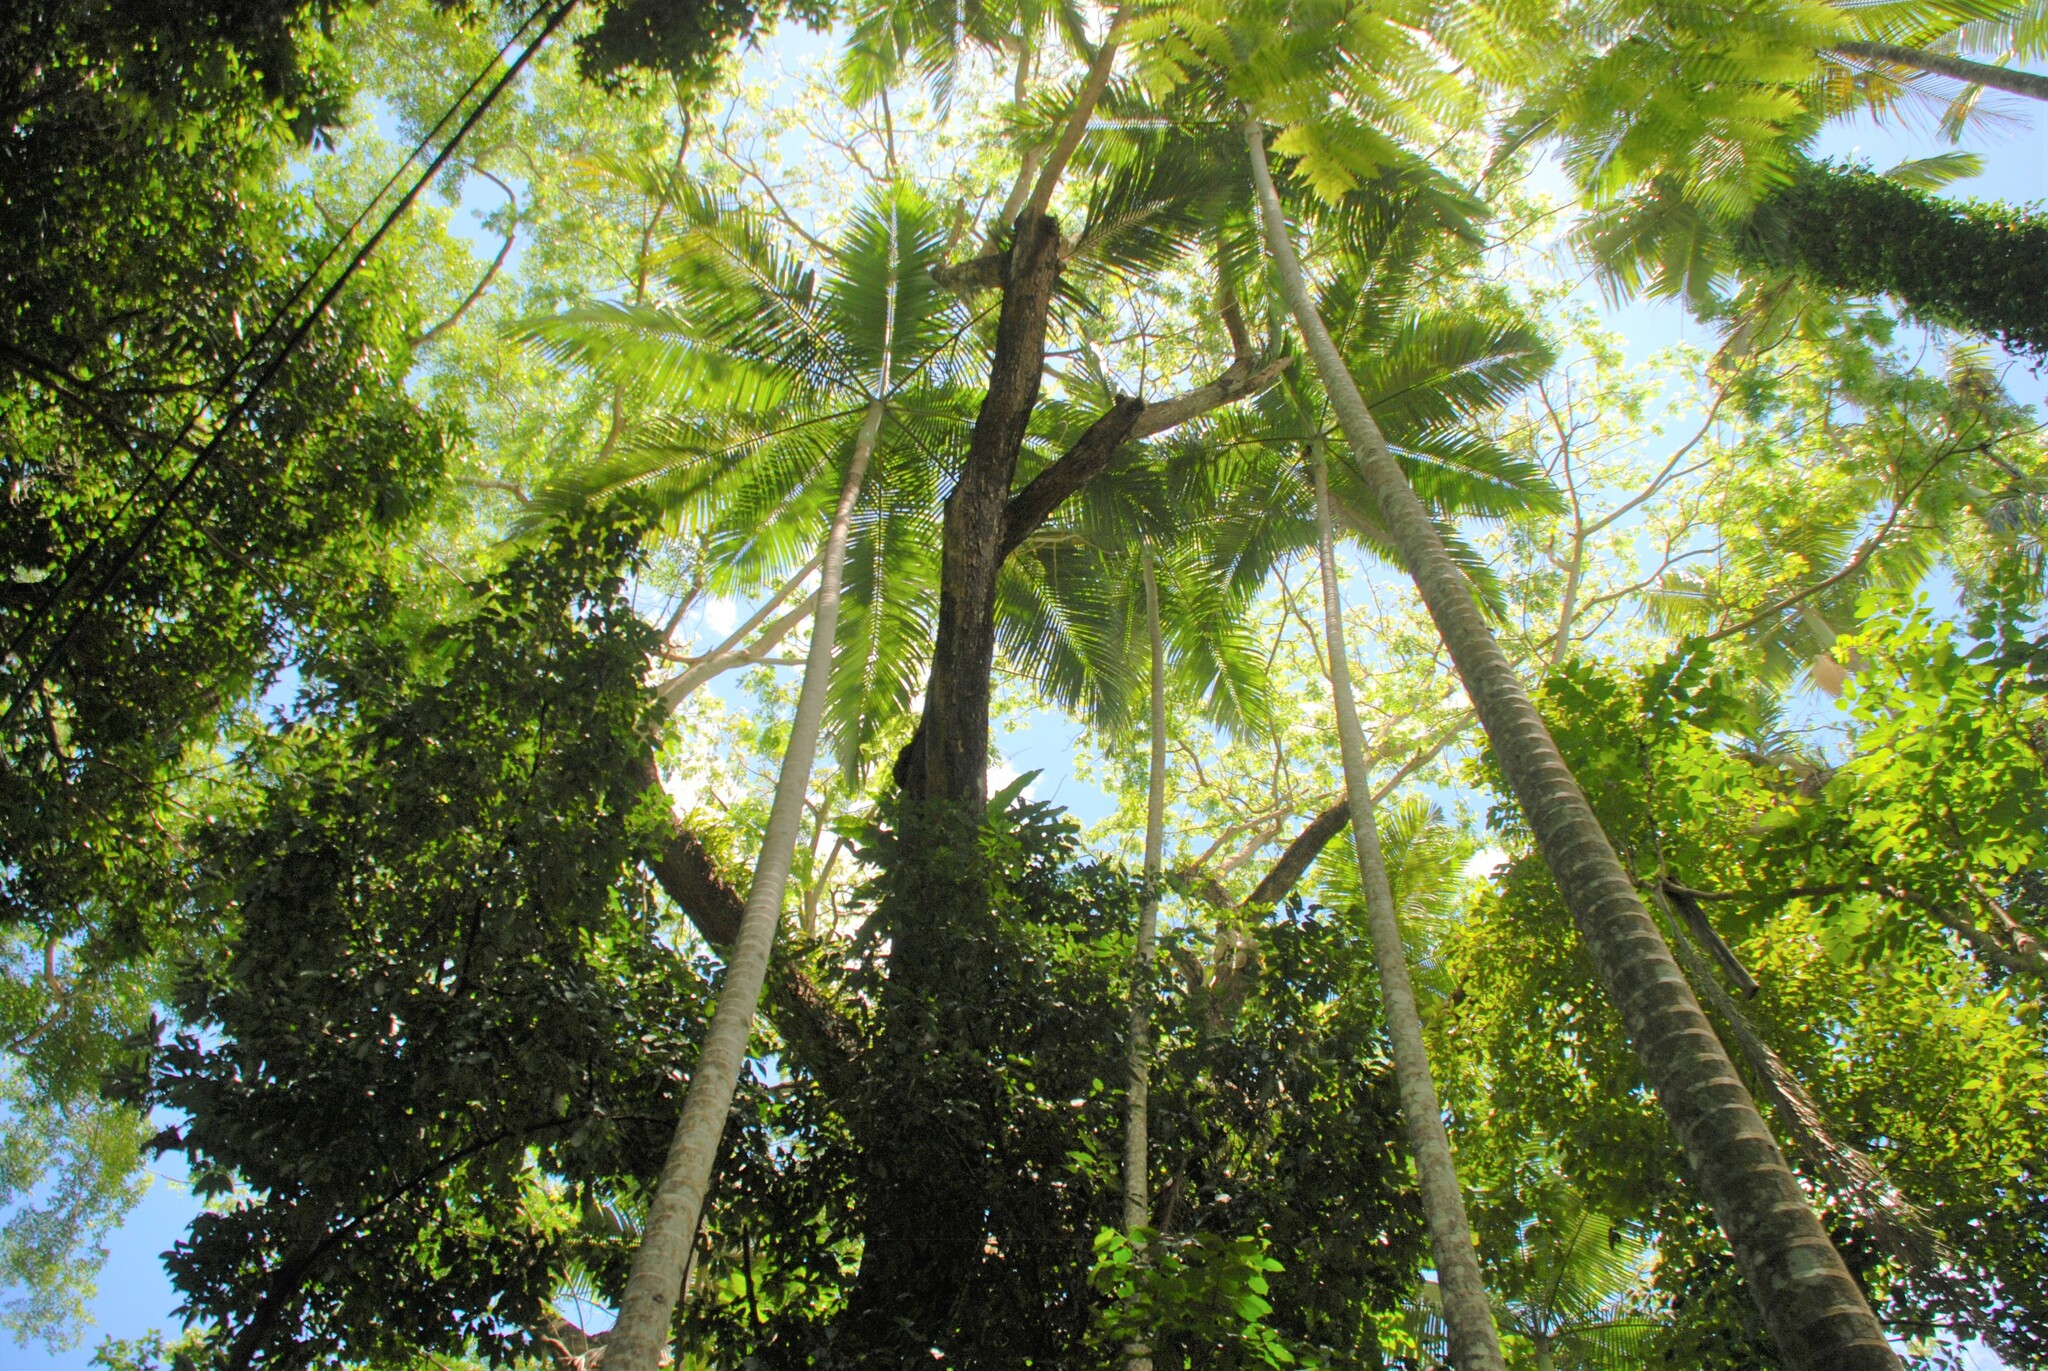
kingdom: Plantae
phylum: Tracheophyta
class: Liliopsida
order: Arecales
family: Arecaceae
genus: Archontophoenix
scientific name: Archontophoenix alexandrae
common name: Alexandra palm
